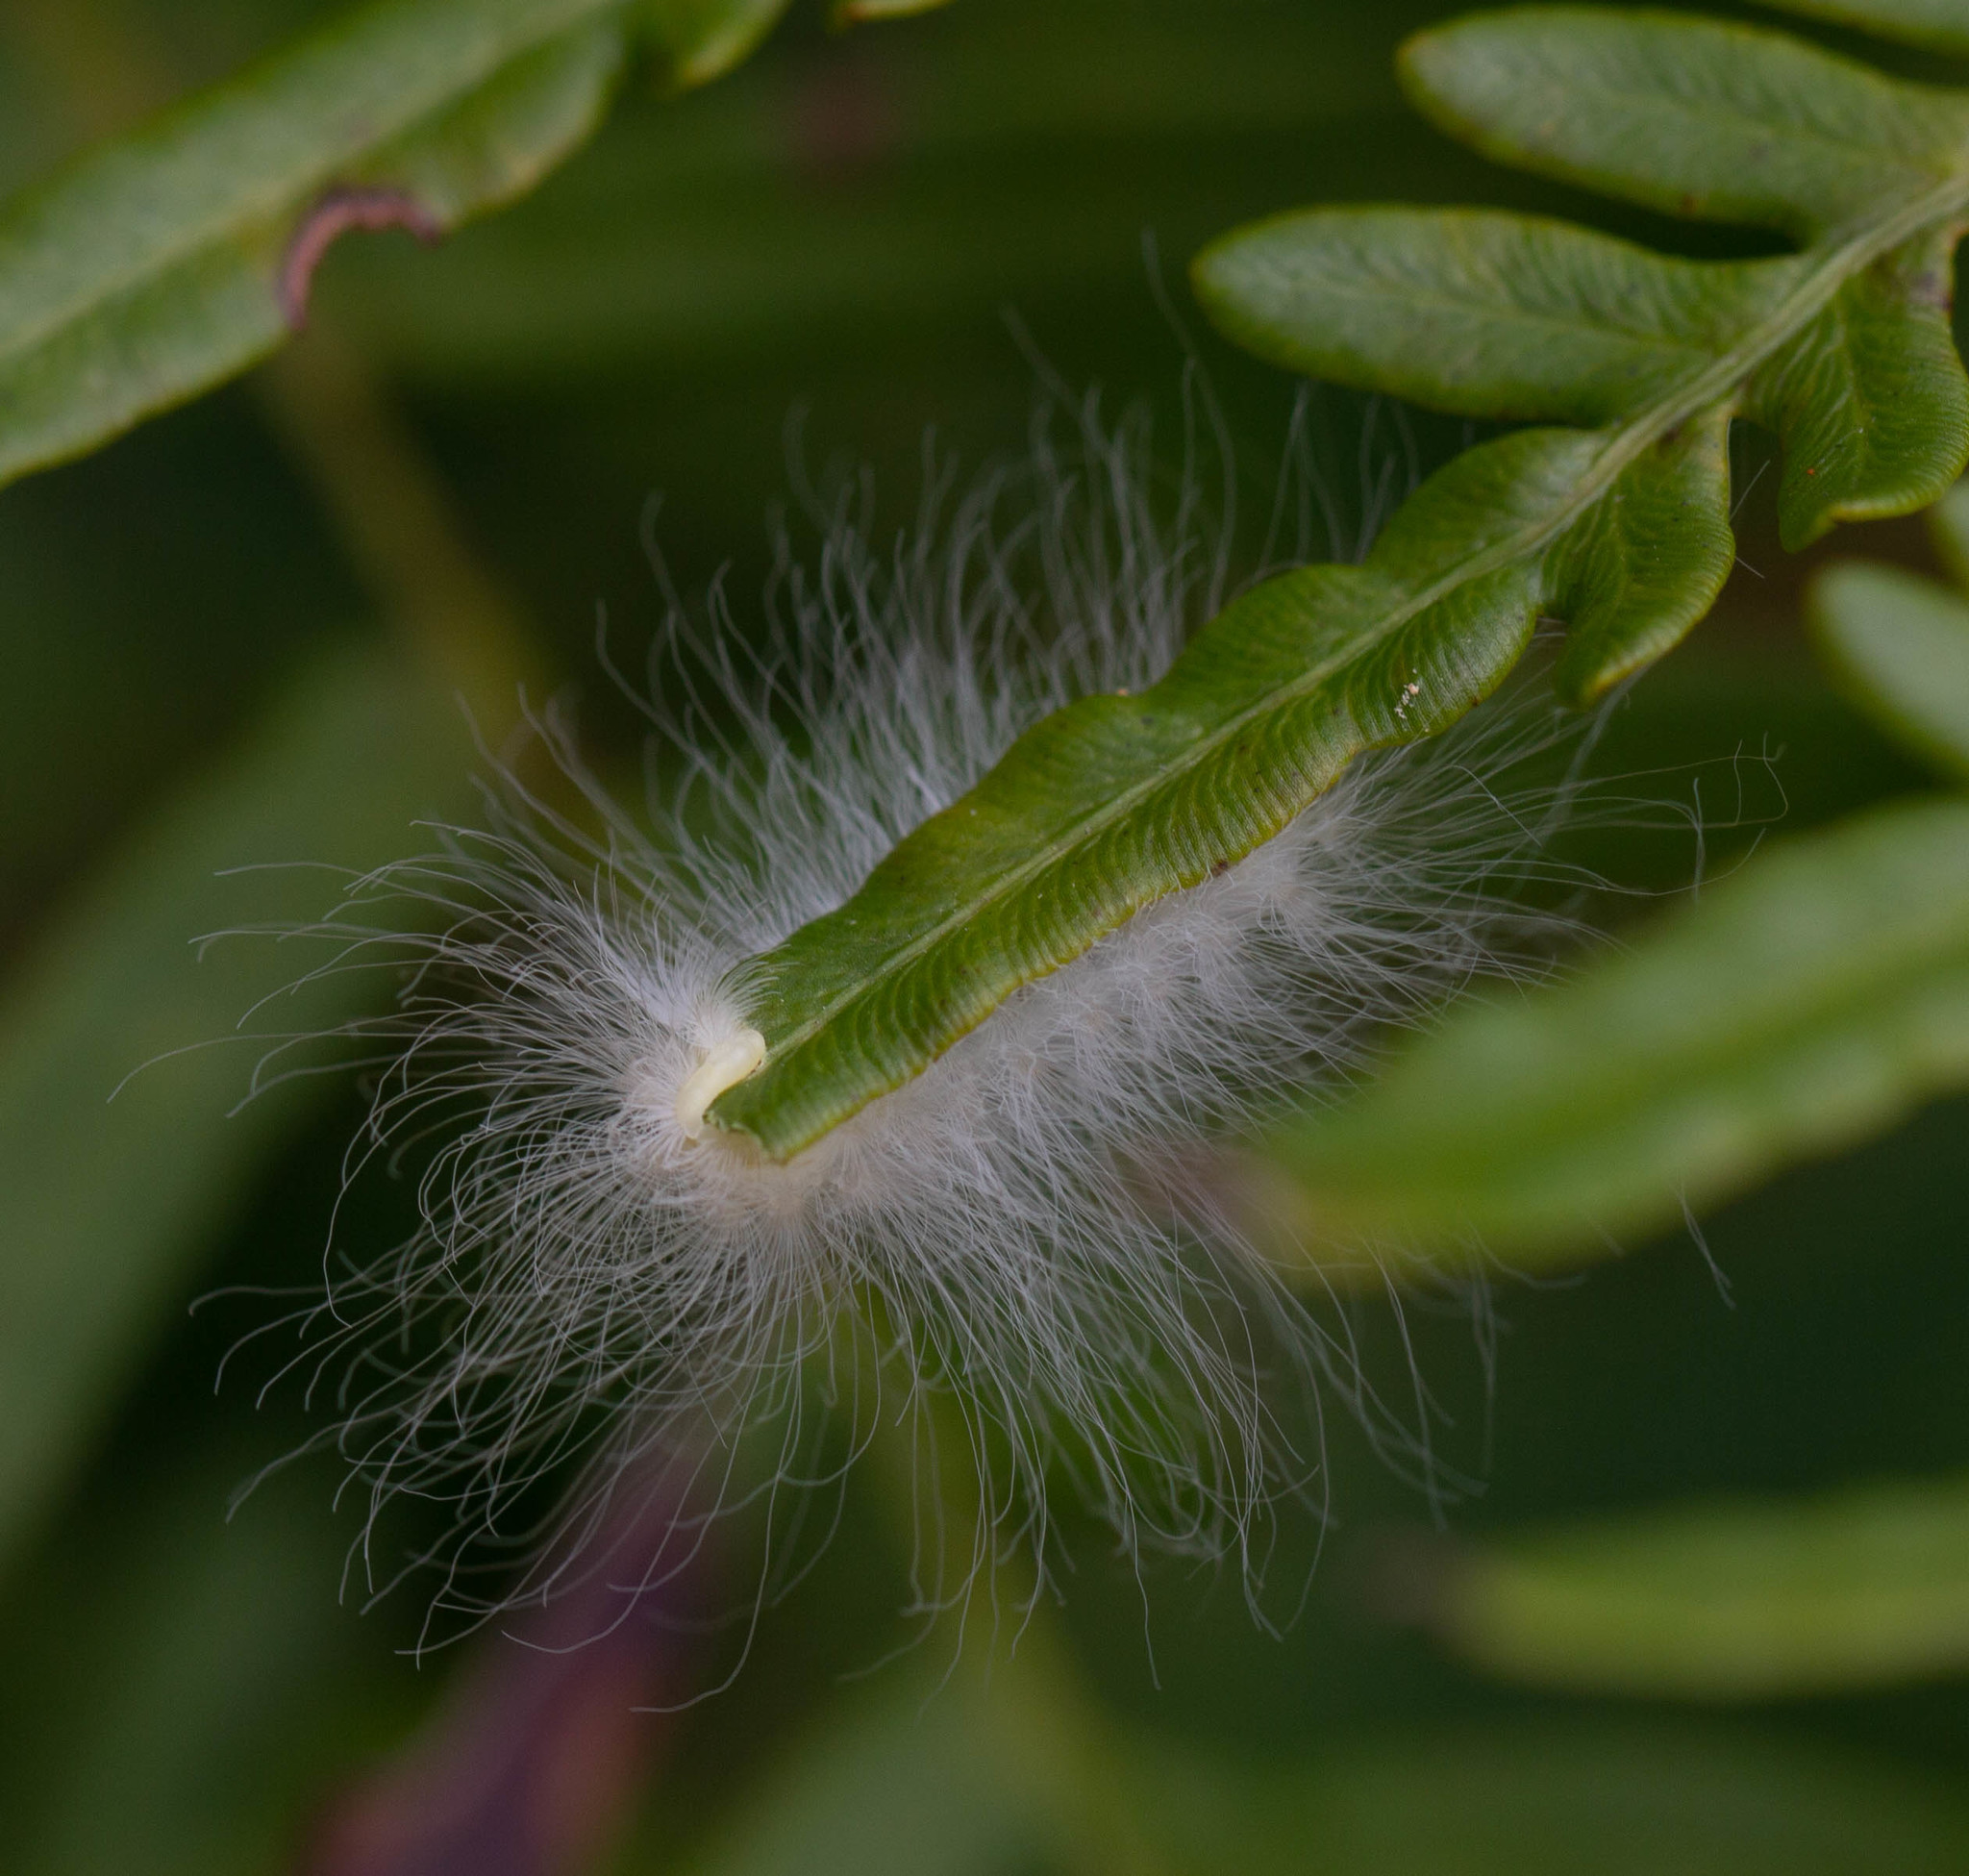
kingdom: Animalia
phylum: Arthropoda
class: Insecta
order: Lepidoptera
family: Megalopygidae
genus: Megalopyge
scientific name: Megalopyge crispata
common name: Black-waved flannel moth
